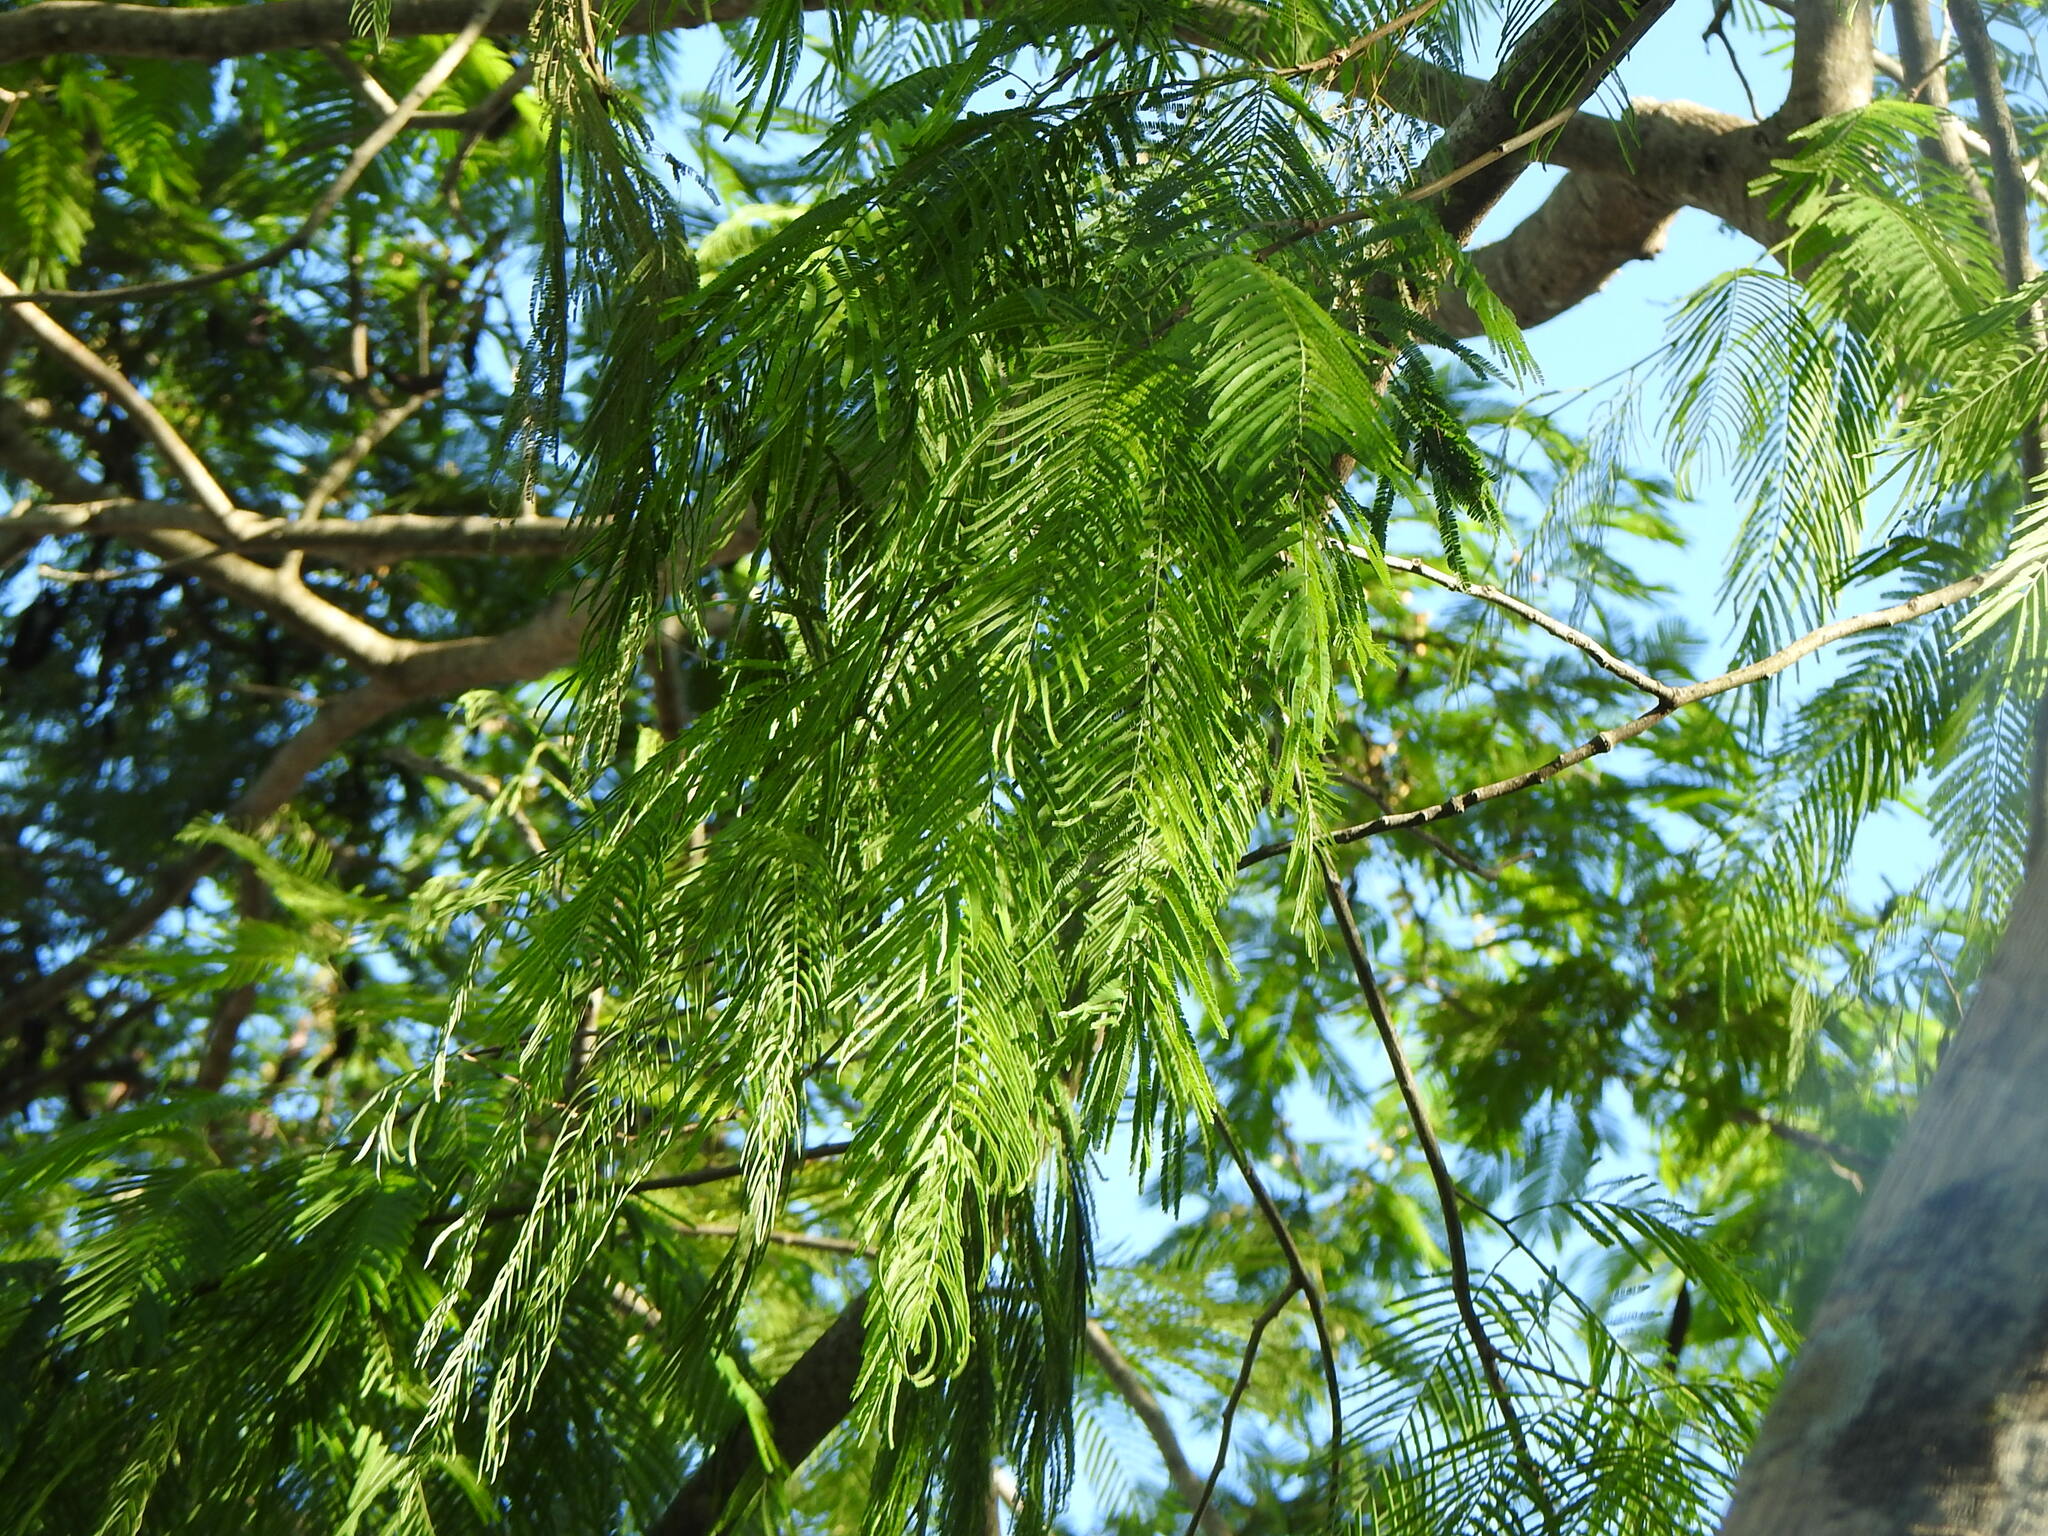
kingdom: Plantae
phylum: Tracheophyta
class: Magnoliopsida
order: Fabales
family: Fabaceae
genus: Anadenanthera
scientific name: Anadenanthera colubrina
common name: Curupay
